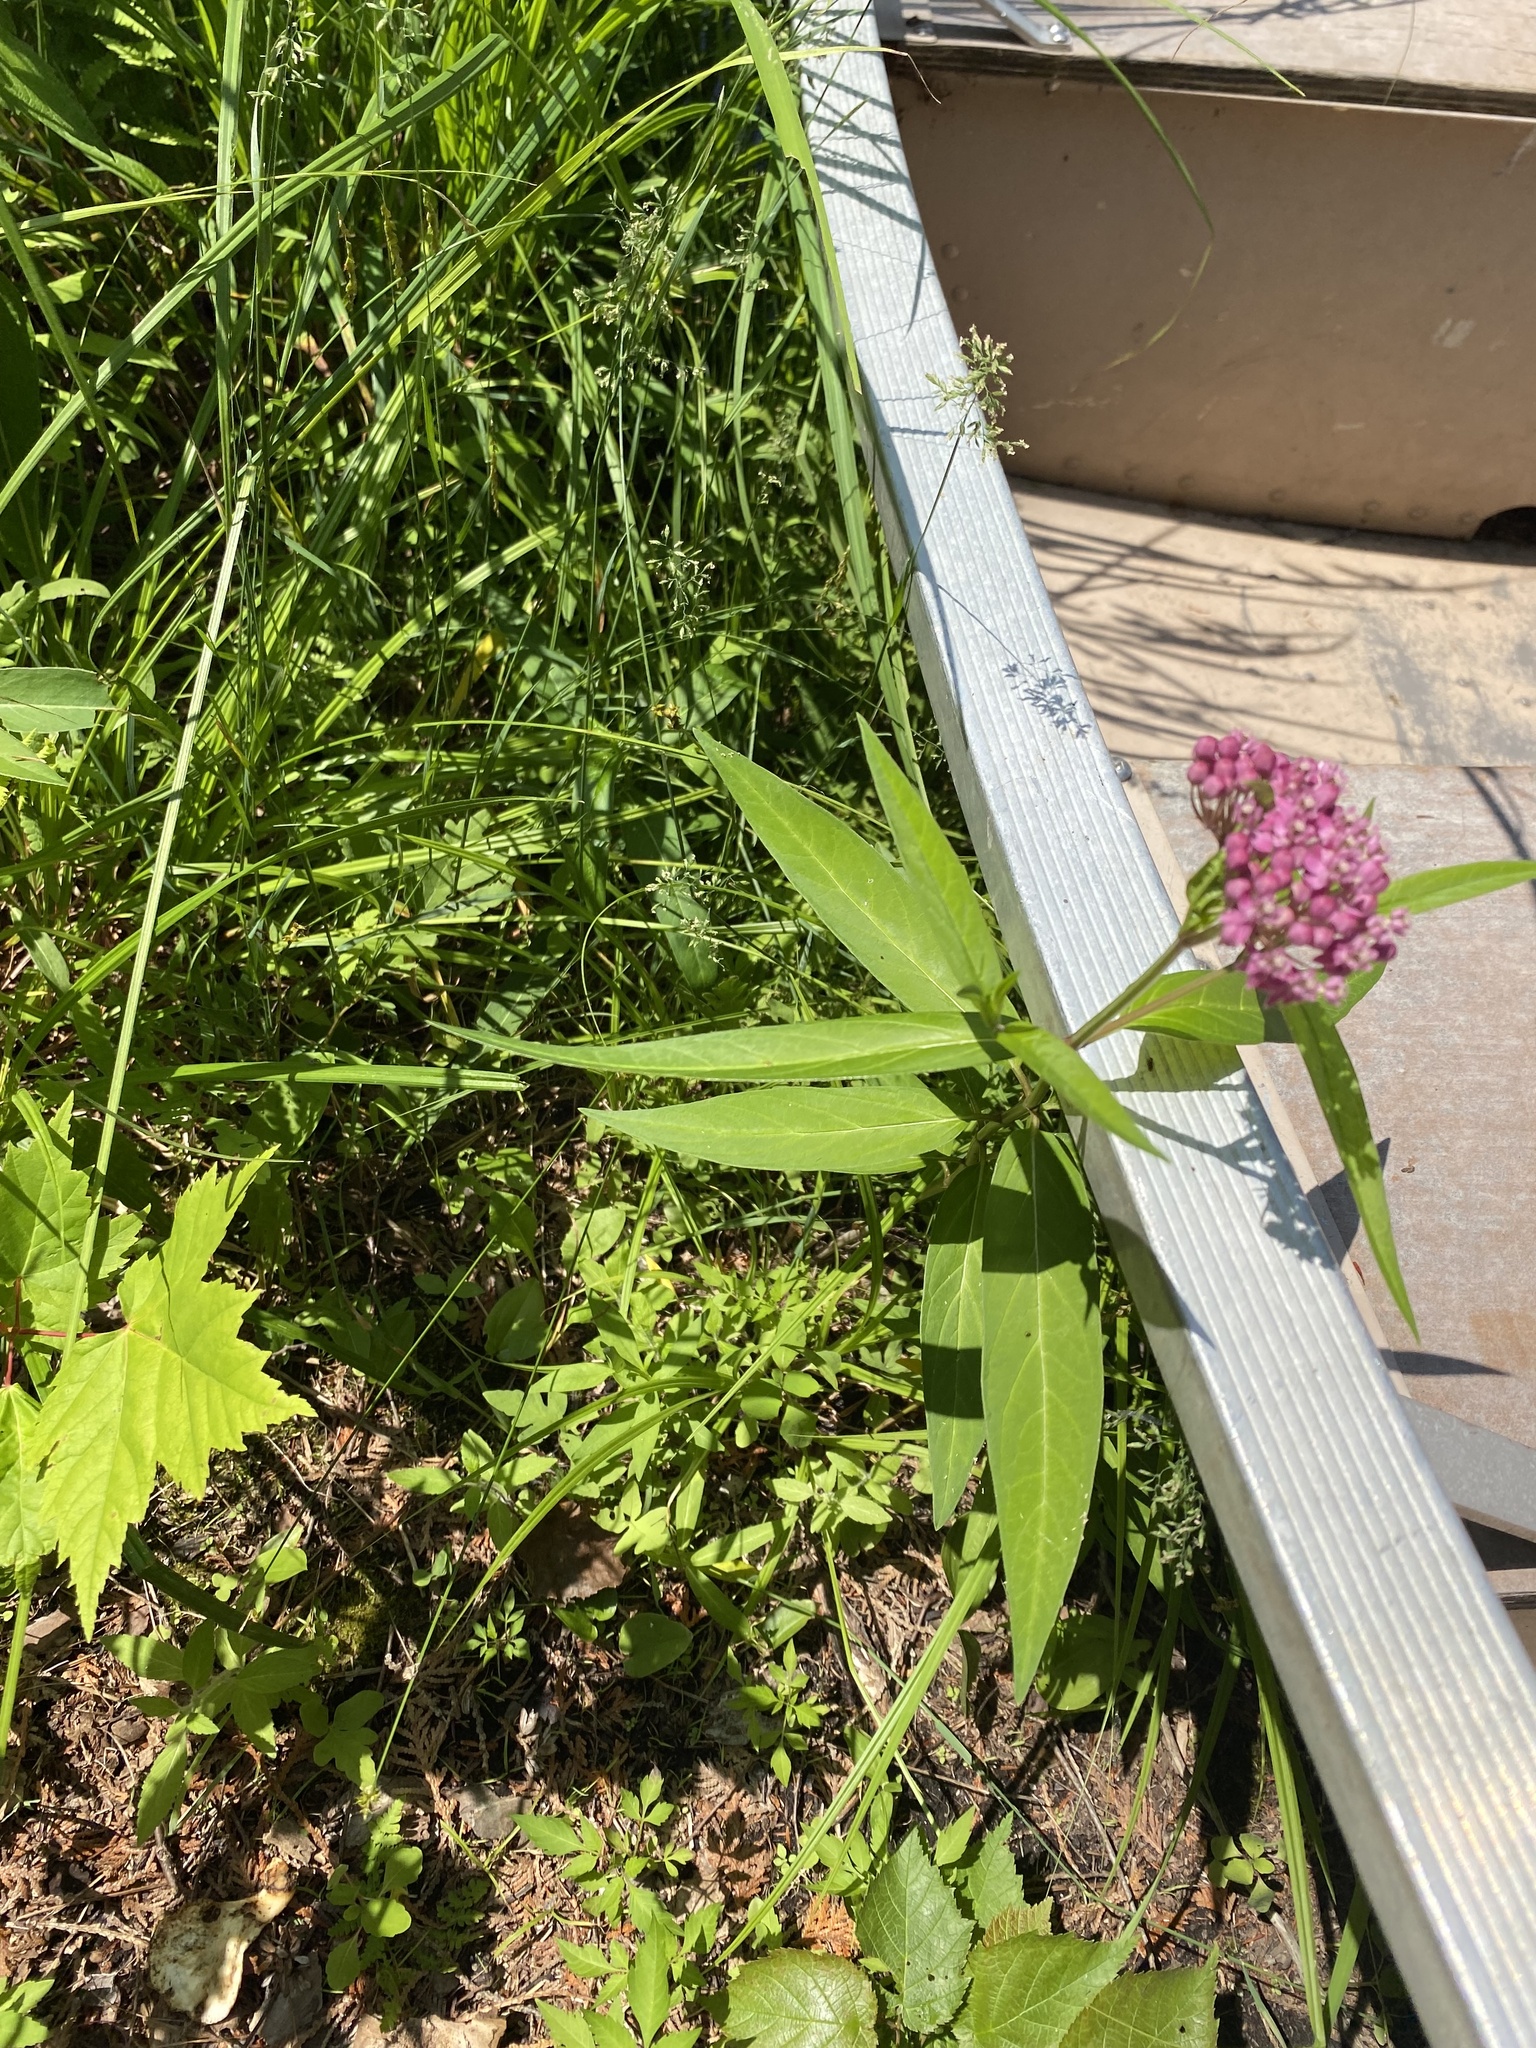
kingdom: Plantae
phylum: Tracheophyta
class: Magnoliopsida
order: Gentianales
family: Apocynaceae
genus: Asclepias
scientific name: Asclepias incarnata
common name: Swamp milkweed
